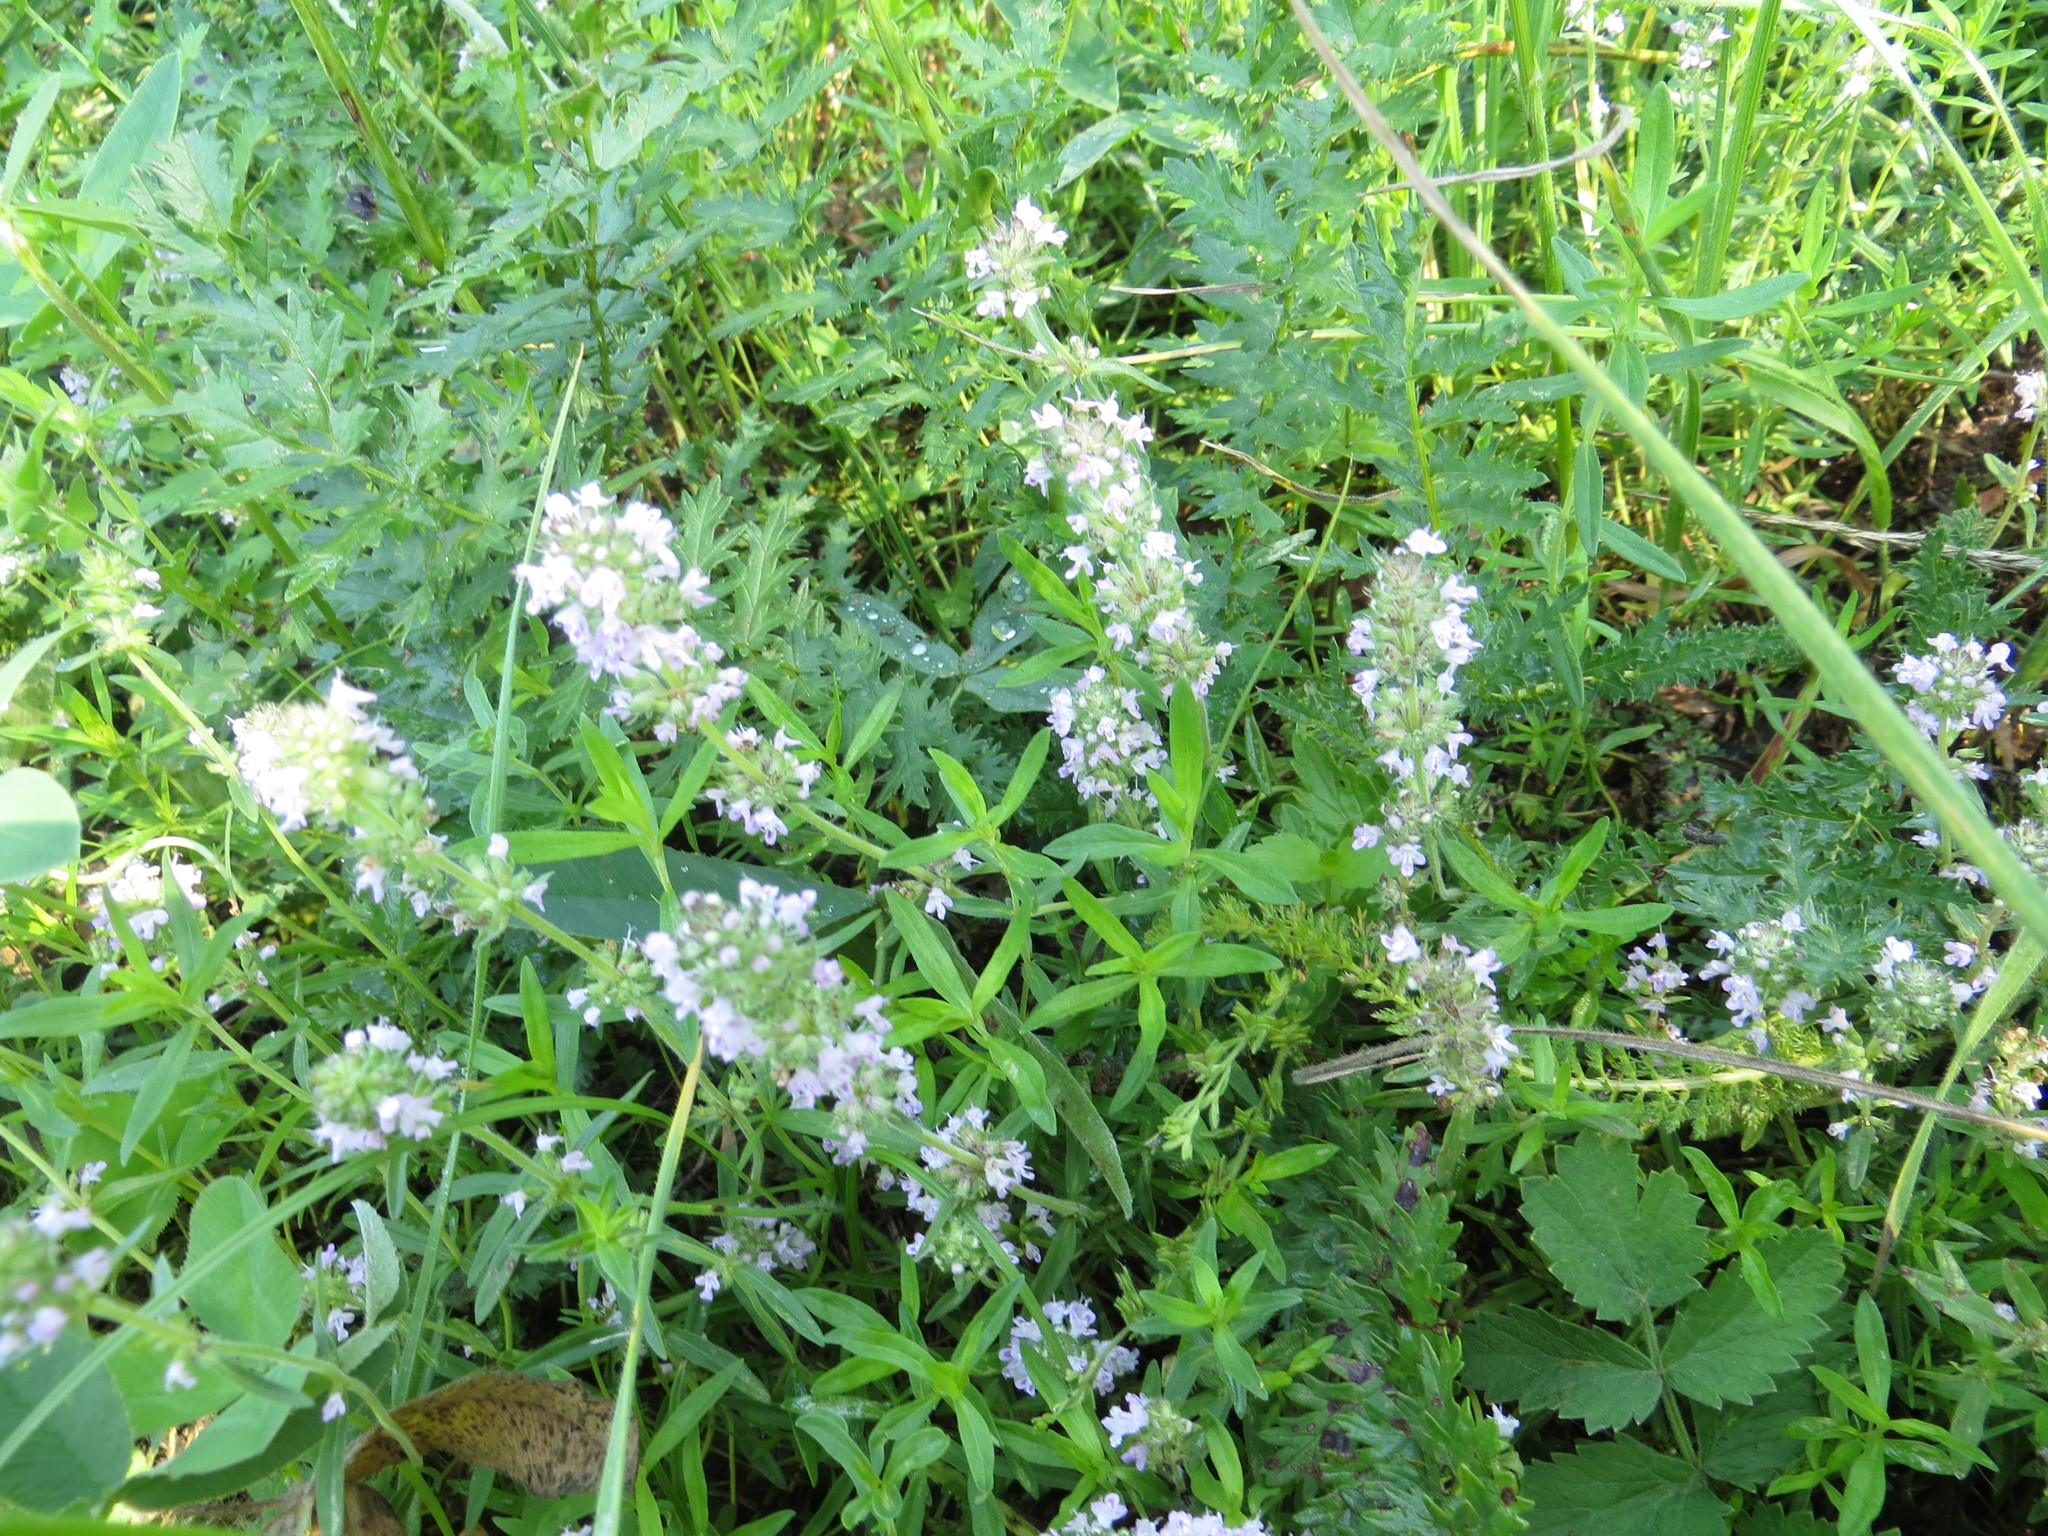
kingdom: Plantae
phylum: Tracheophyta
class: Magnoliopsida
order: Lamiales
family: Lamiaceae
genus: Thymus
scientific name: Thymus pannonicus
